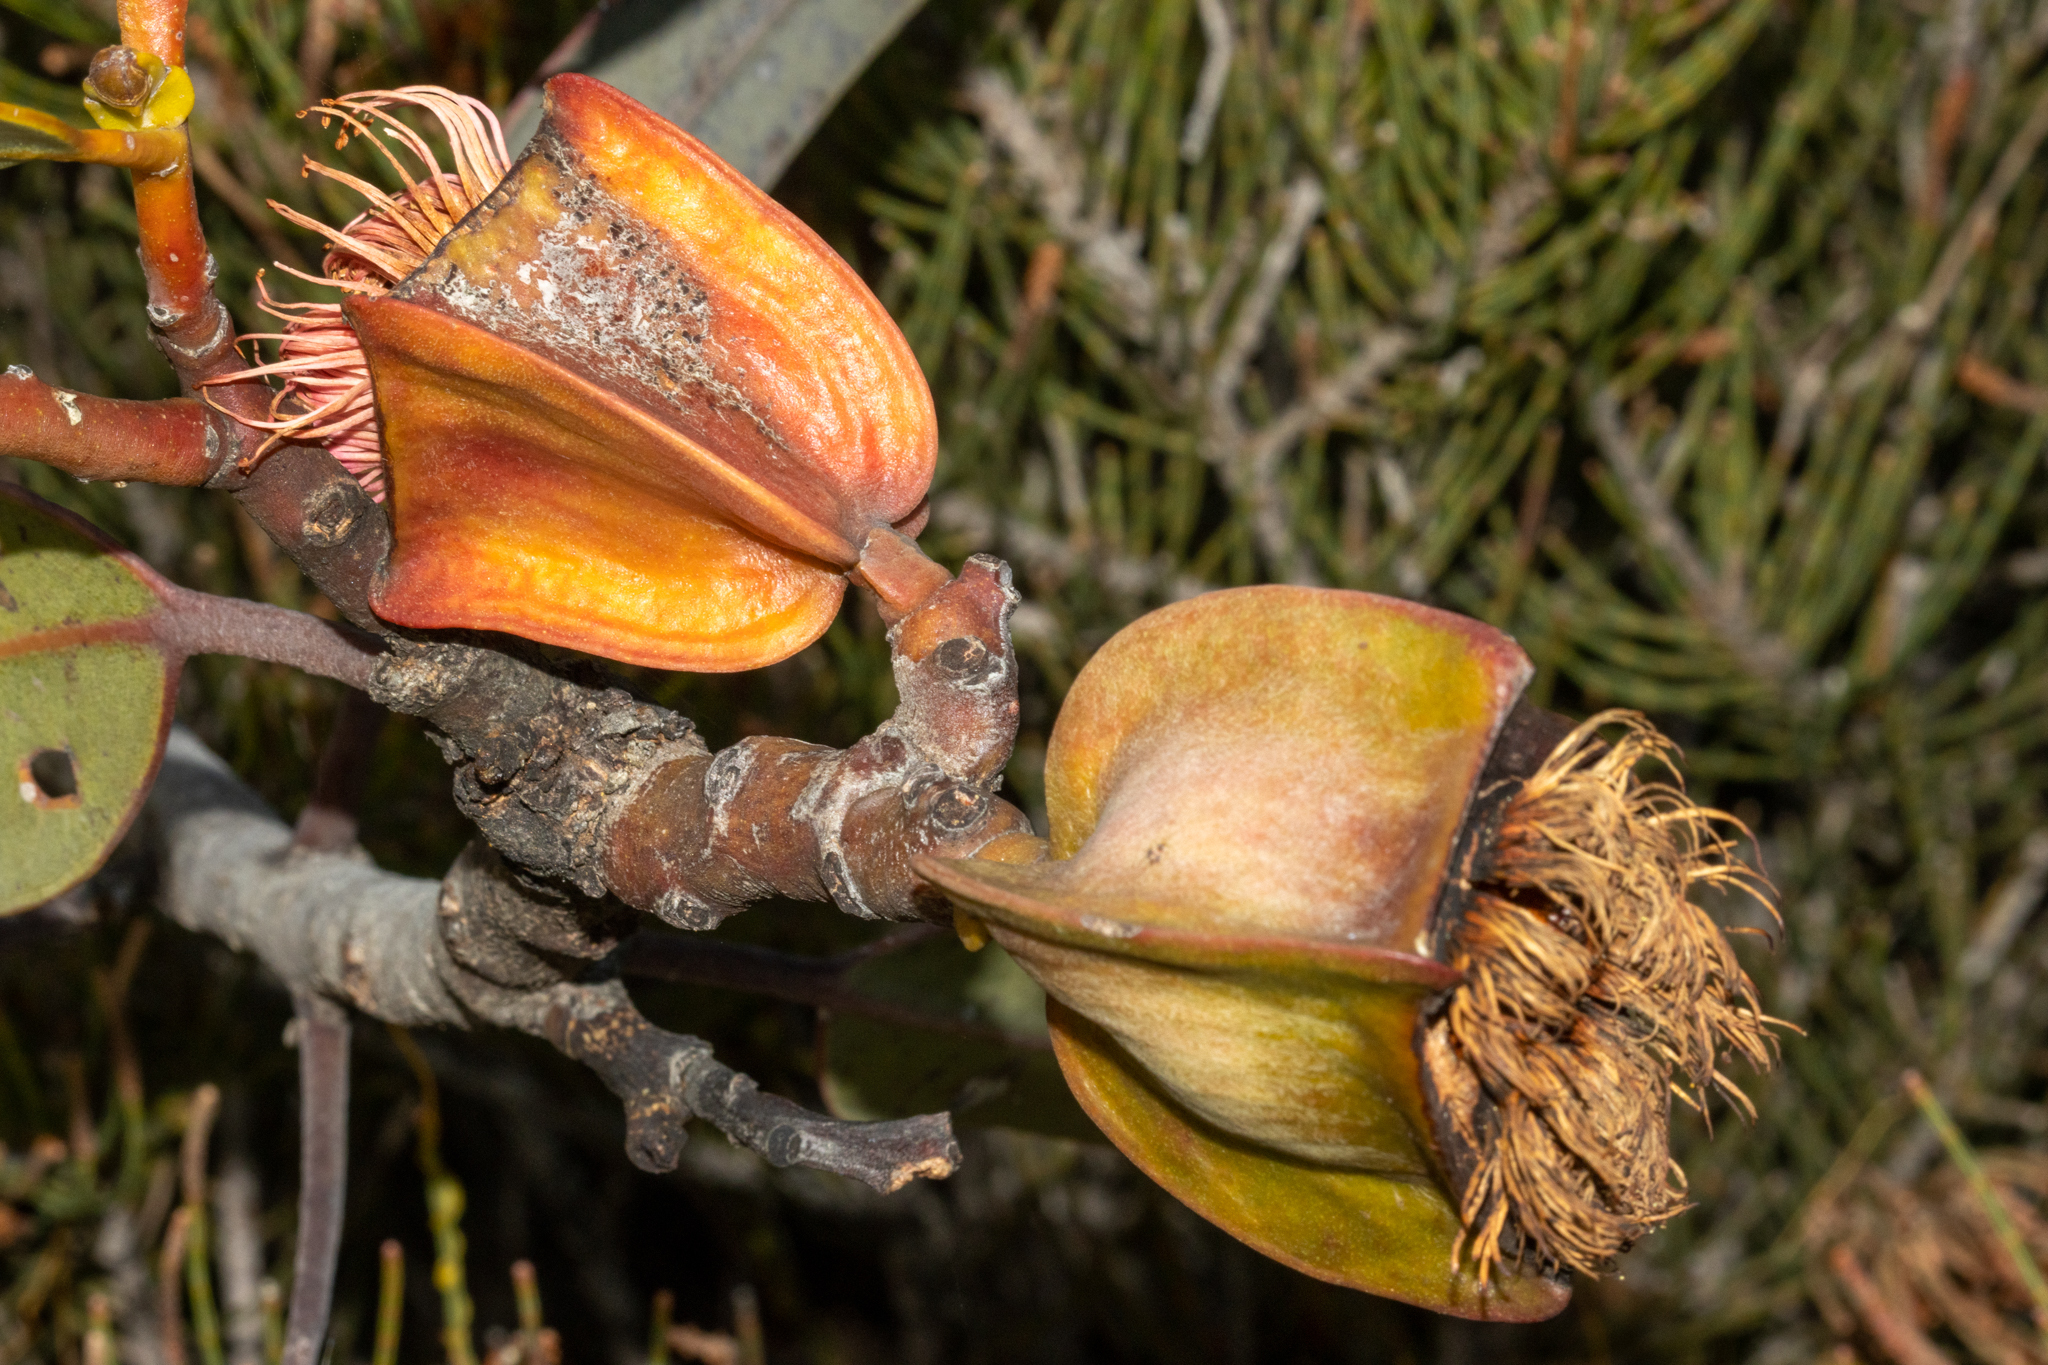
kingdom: Plantae
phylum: Tracheophyta
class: Magnoliopsida
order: Myrtales
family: Myrtaceae
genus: Eucalyptus
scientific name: Eucalyptus tetraptera
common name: Four-wing mallee
